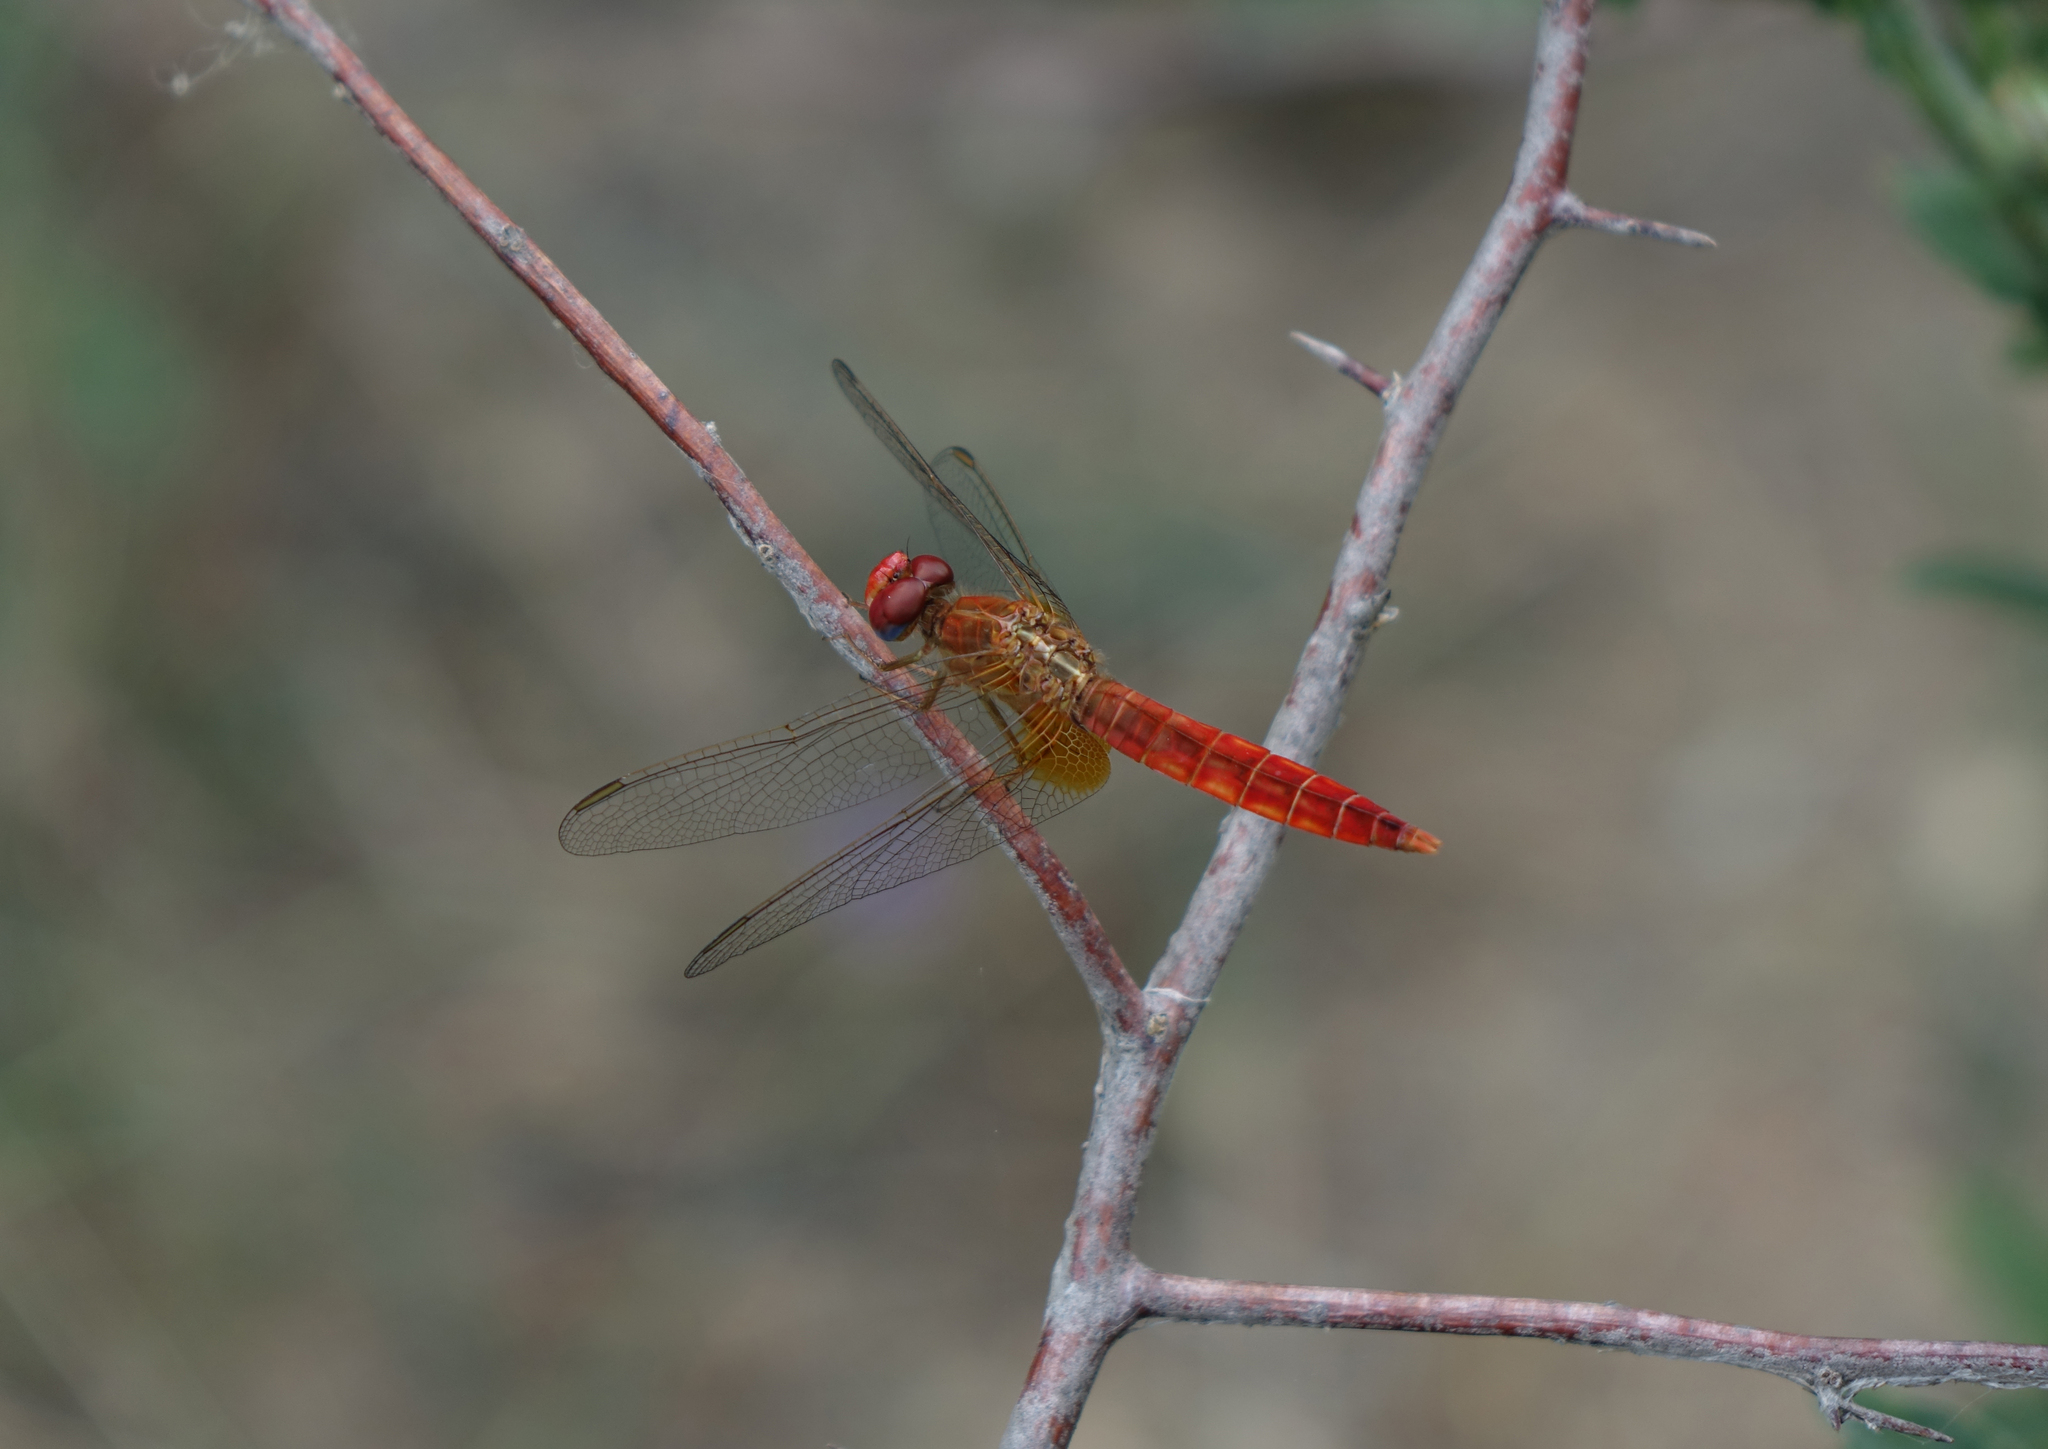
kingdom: Animalia
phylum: Arthropoda
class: Insecta
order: Odonata
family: Libellulidae
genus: Crocothemis
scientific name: Crocothemis erythraea
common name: Scarlet dragonfly
